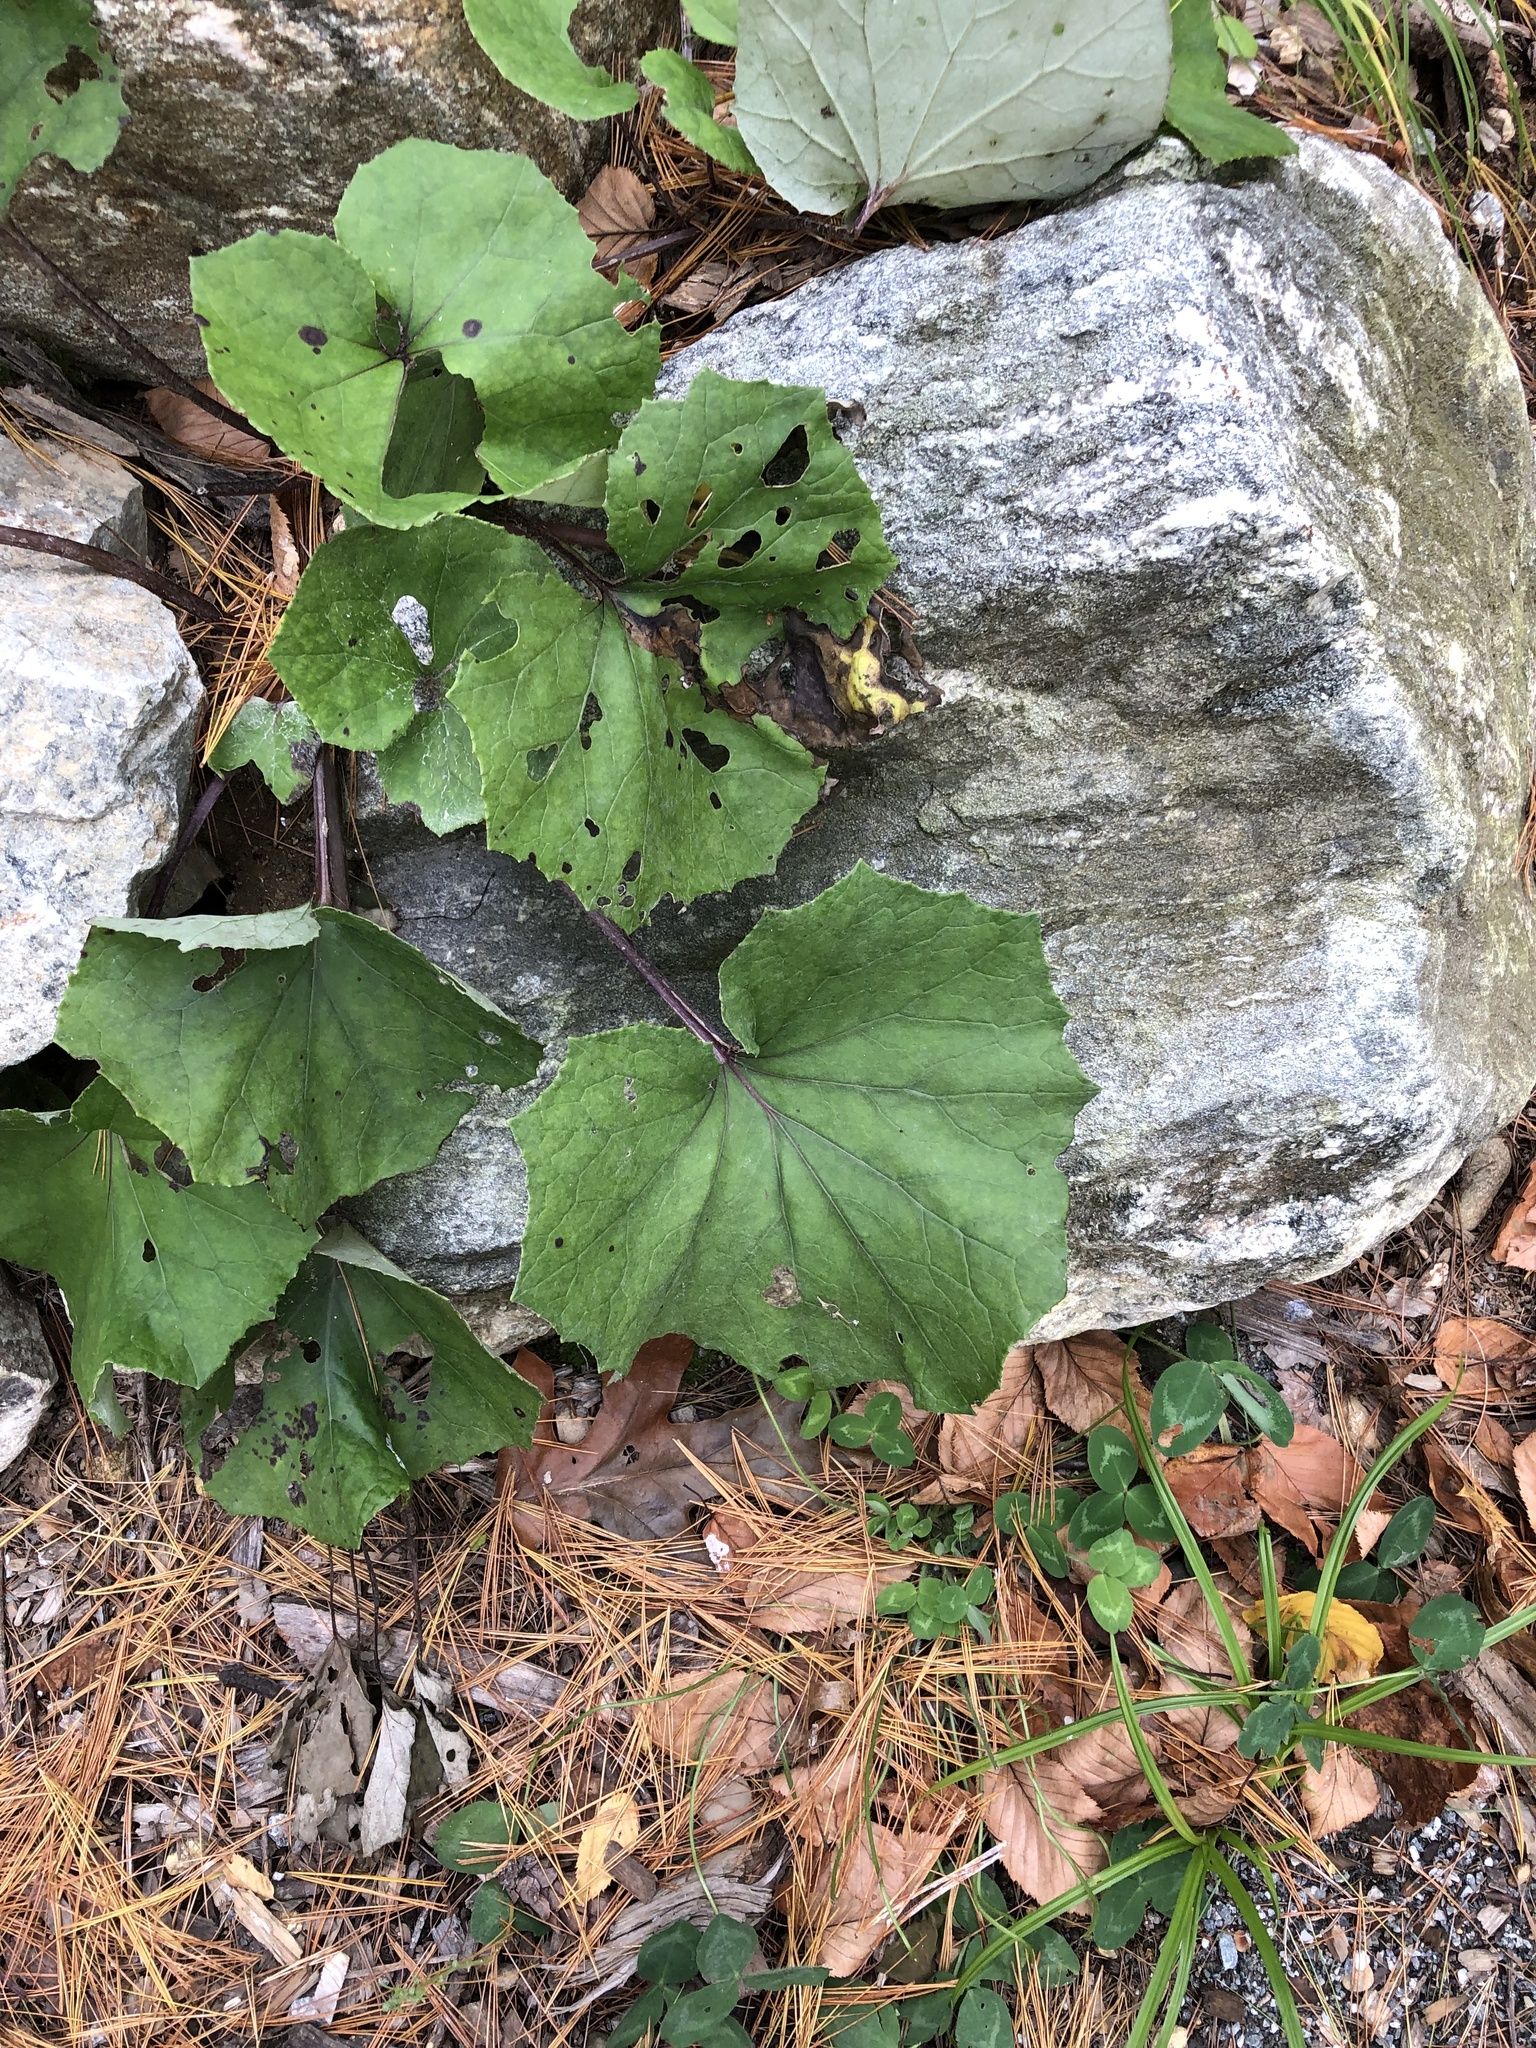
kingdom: Plantae
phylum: Tracheophyta
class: Magnoliopsida
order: Asterales
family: Asteraceae
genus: Tussilago
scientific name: Tussilago farfara
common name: Coltsfoot
